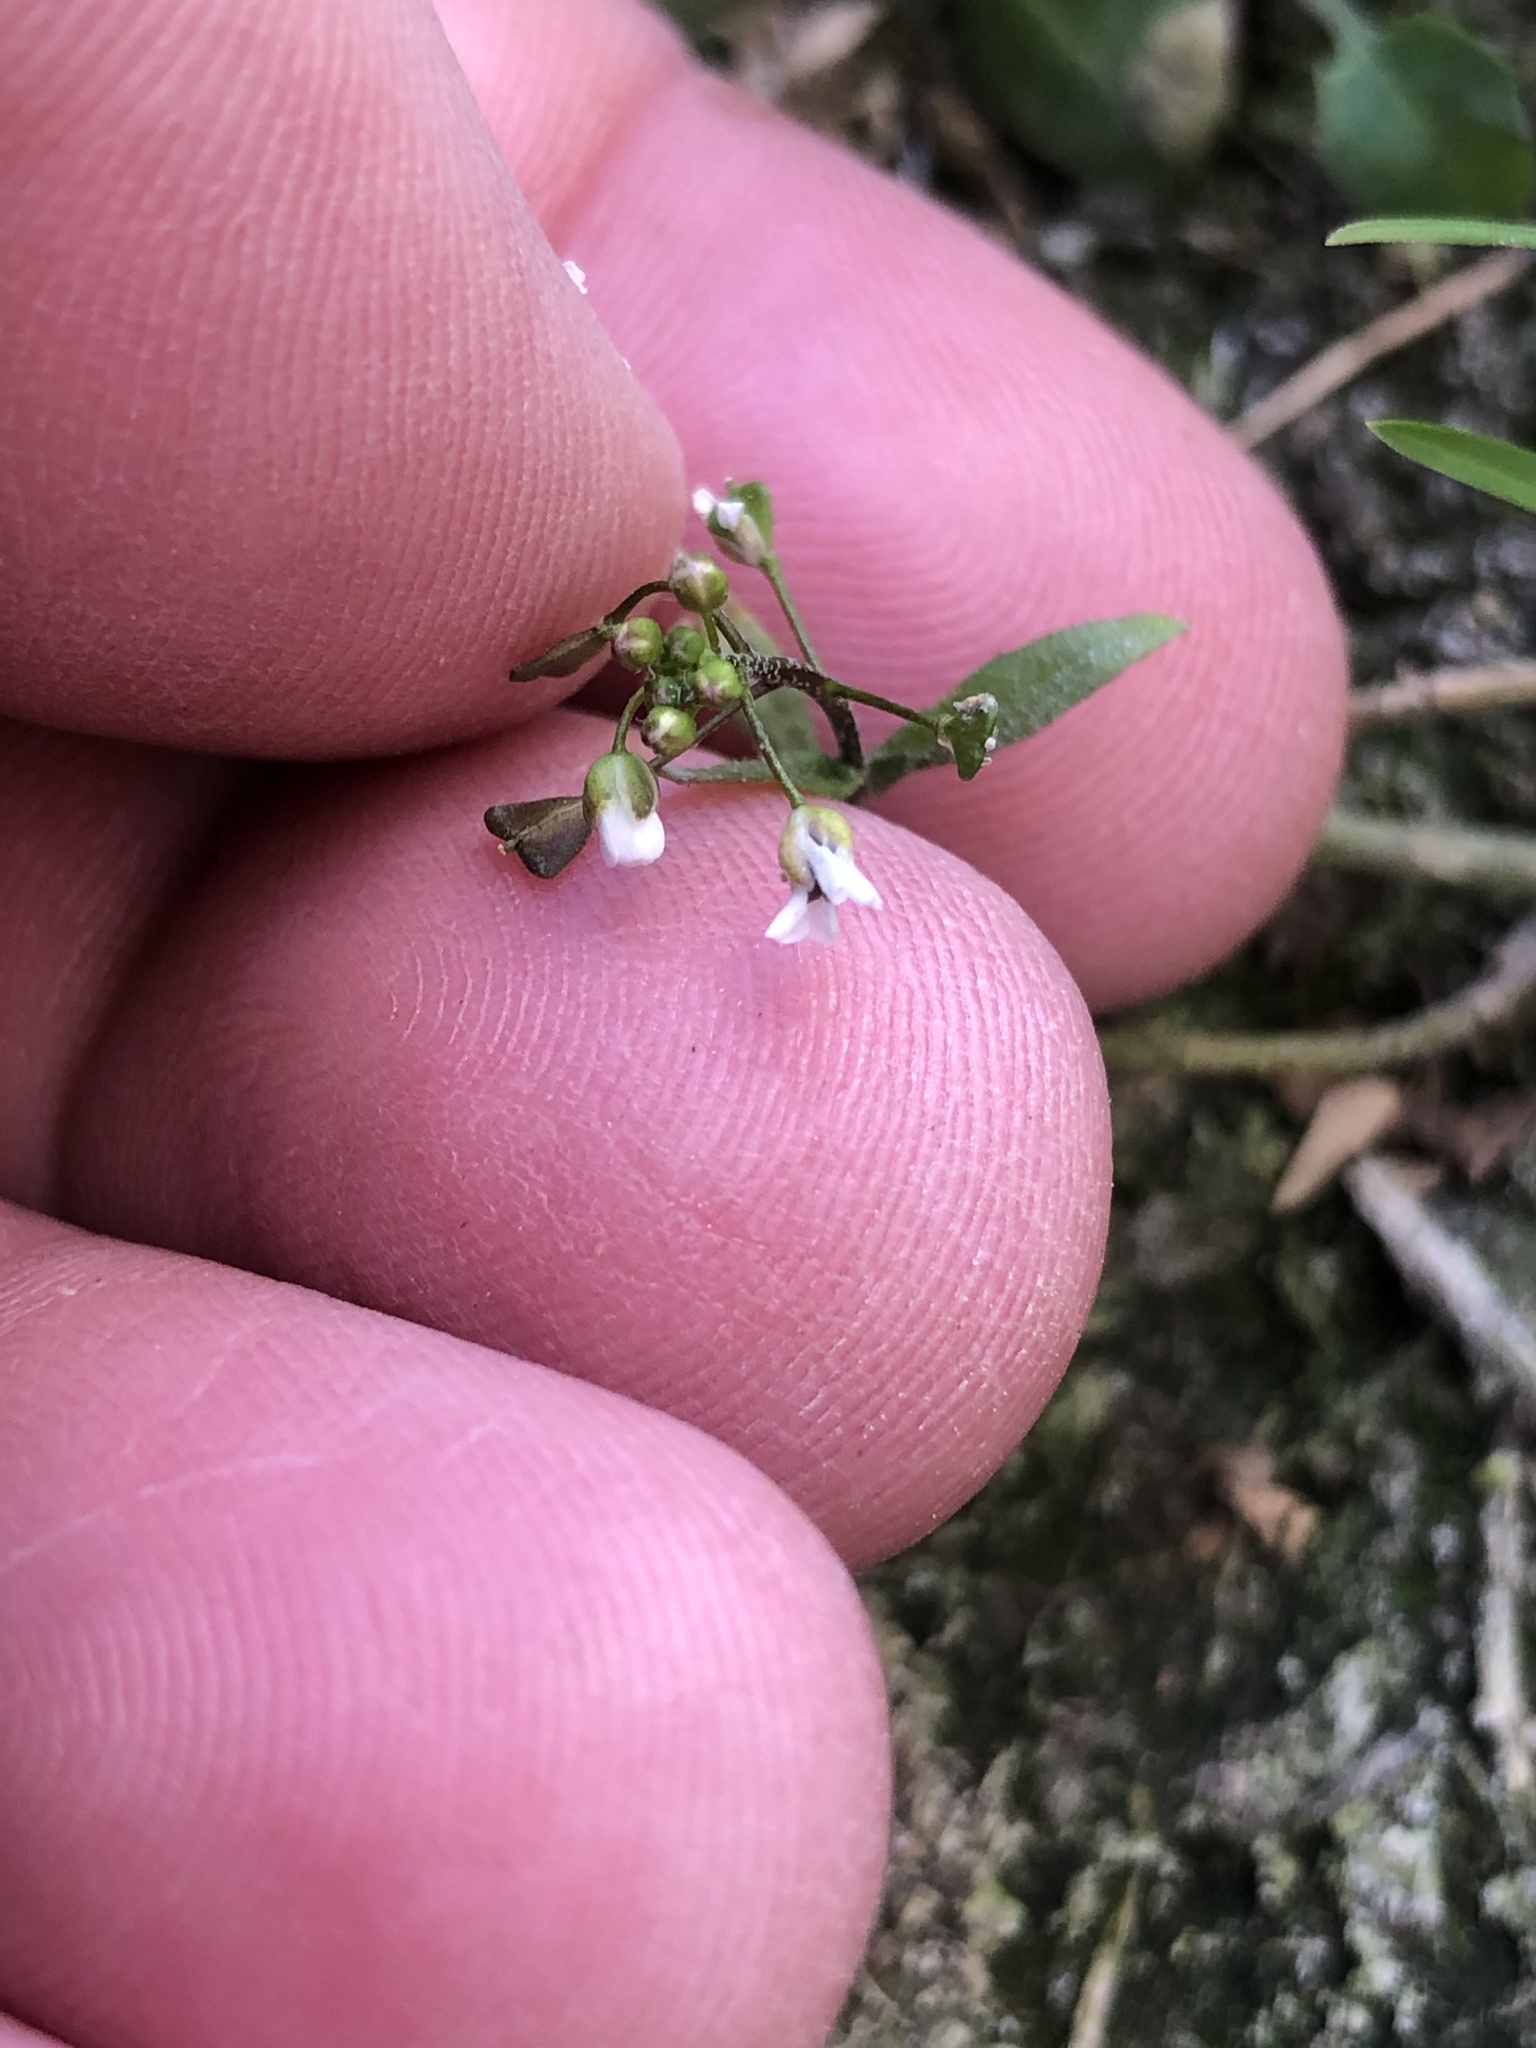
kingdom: Plantae
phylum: Tracheophyta
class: Magnoliopsida
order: Brassicales
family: Brassicaceae
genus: Capsella
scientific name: Capsella bursa-pastoris
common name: Shepherd's purse
